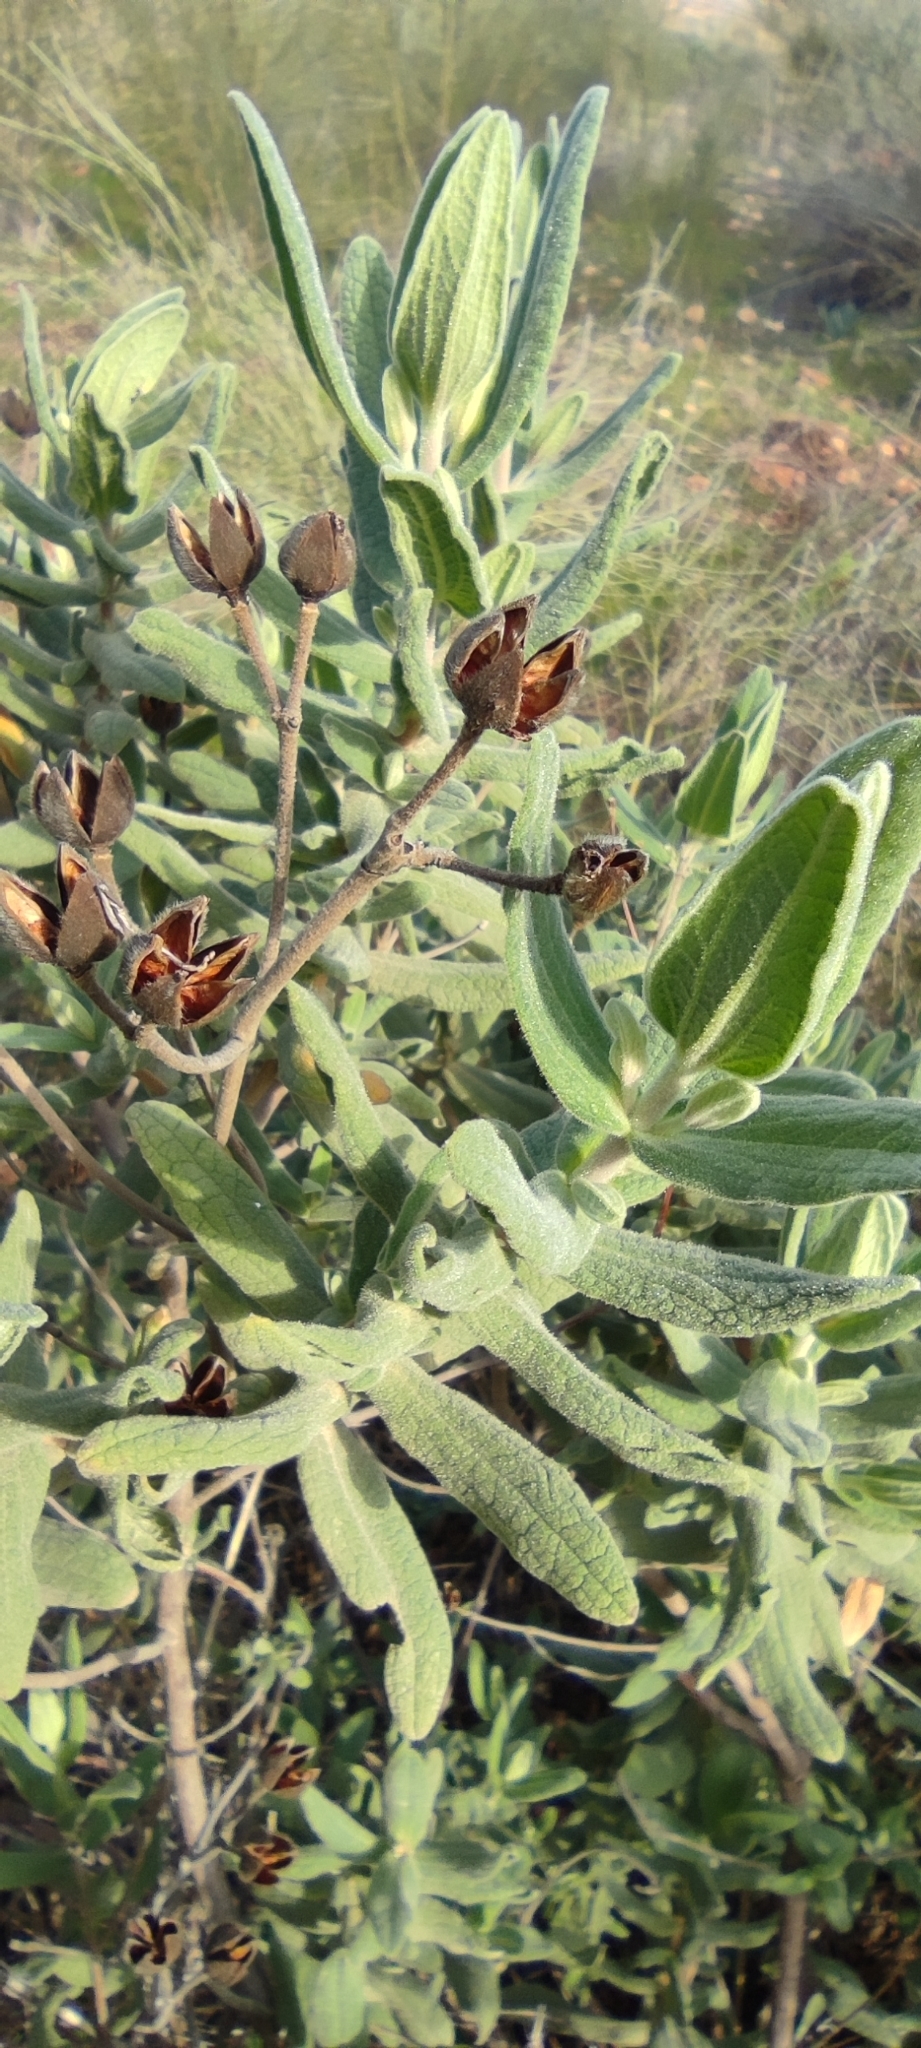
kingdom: Plantae
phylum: Tracheophyta
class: Magnoliopsida
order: Malvales
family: Cistaceae
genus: Cistus
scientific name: Cistus albidus
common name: White-leaf rock-rose
